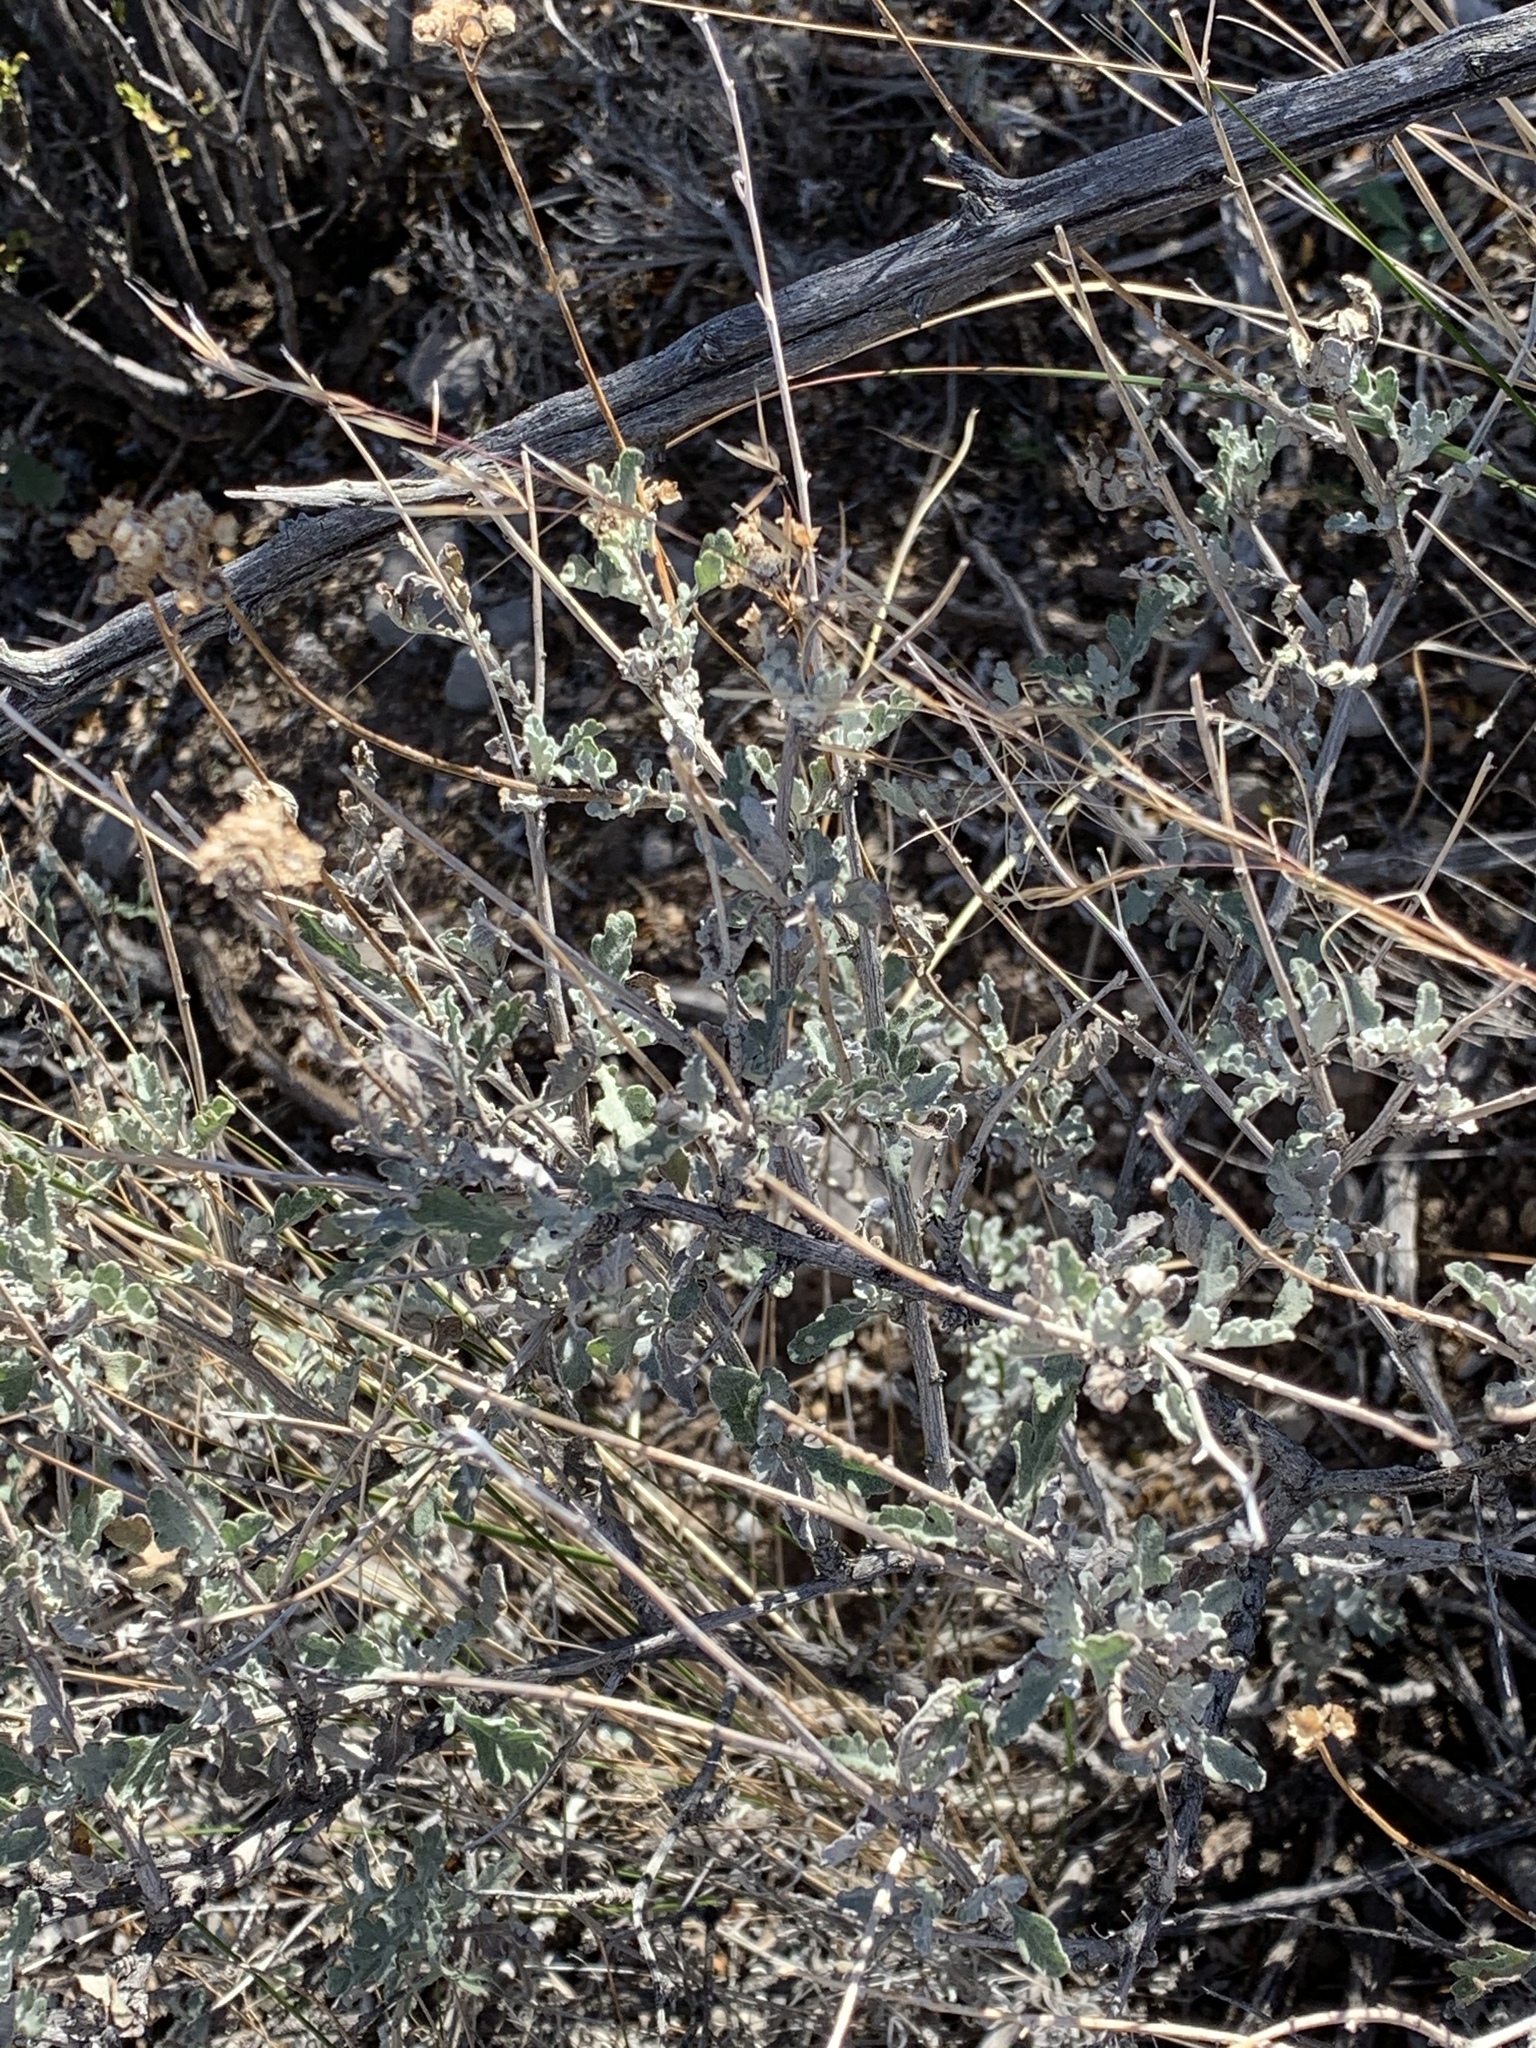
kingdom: Plantae
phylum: Tracheophyta
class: Magnoliopsida
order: Asterales
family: Asteraceae
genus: Parthenium
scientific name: Parthenium incanum
